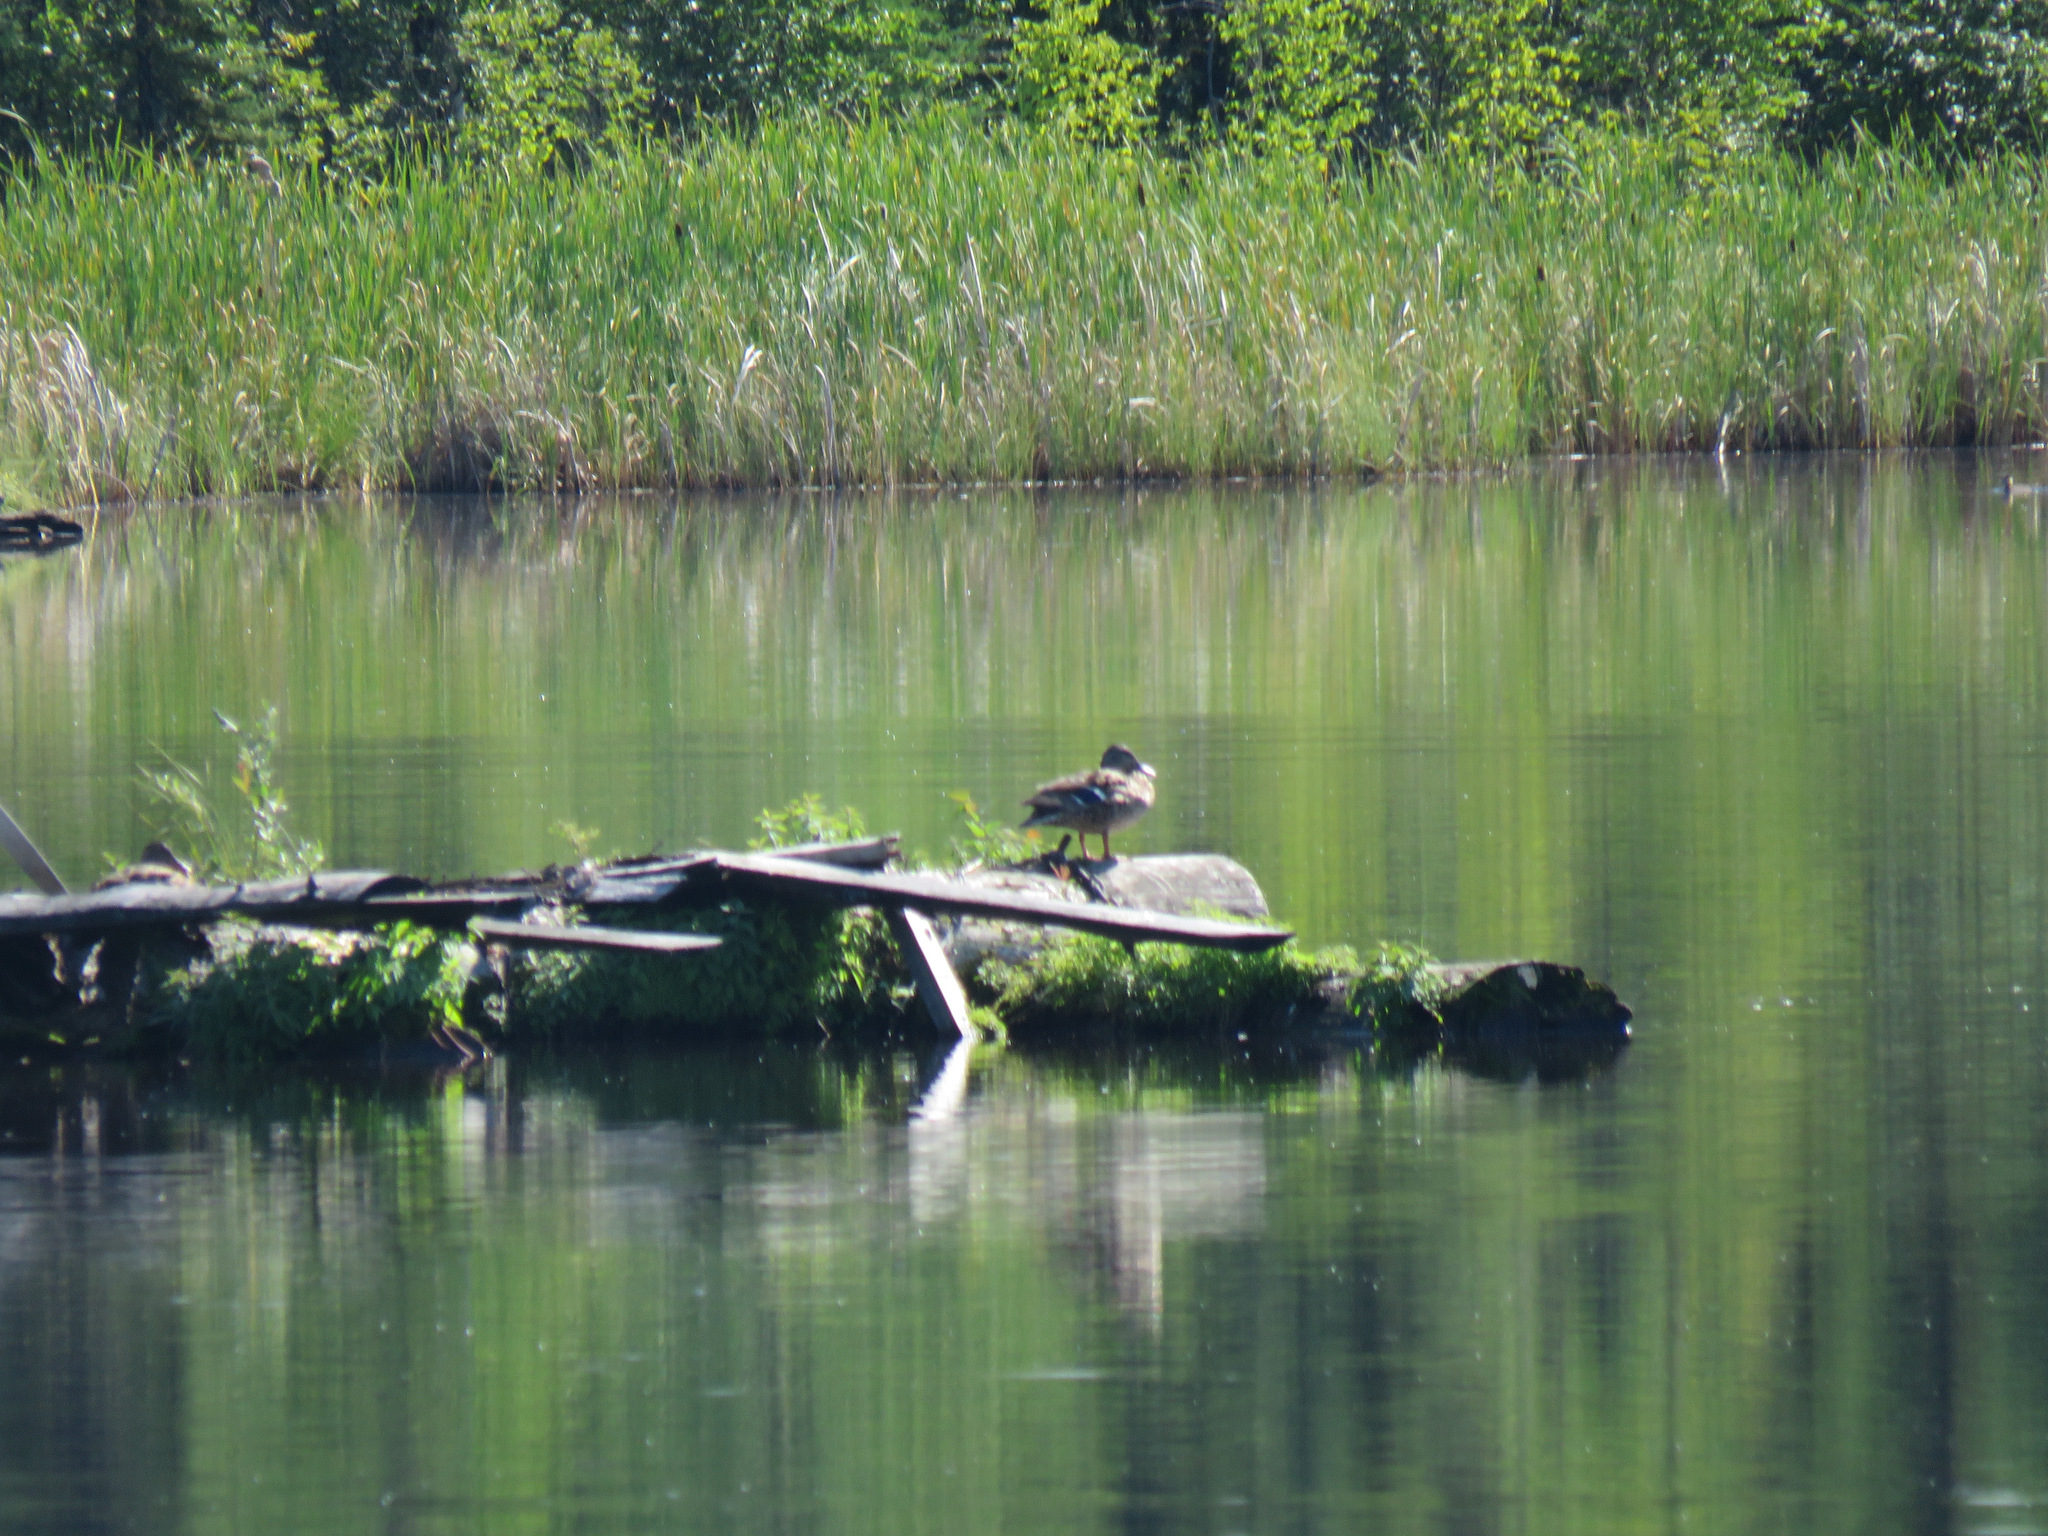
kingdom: Animalia
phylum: Chordata
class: Aves
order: Anseriformes
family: Anatidae
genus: Anas
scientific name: Anas platyrhynchos
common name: Mallard
